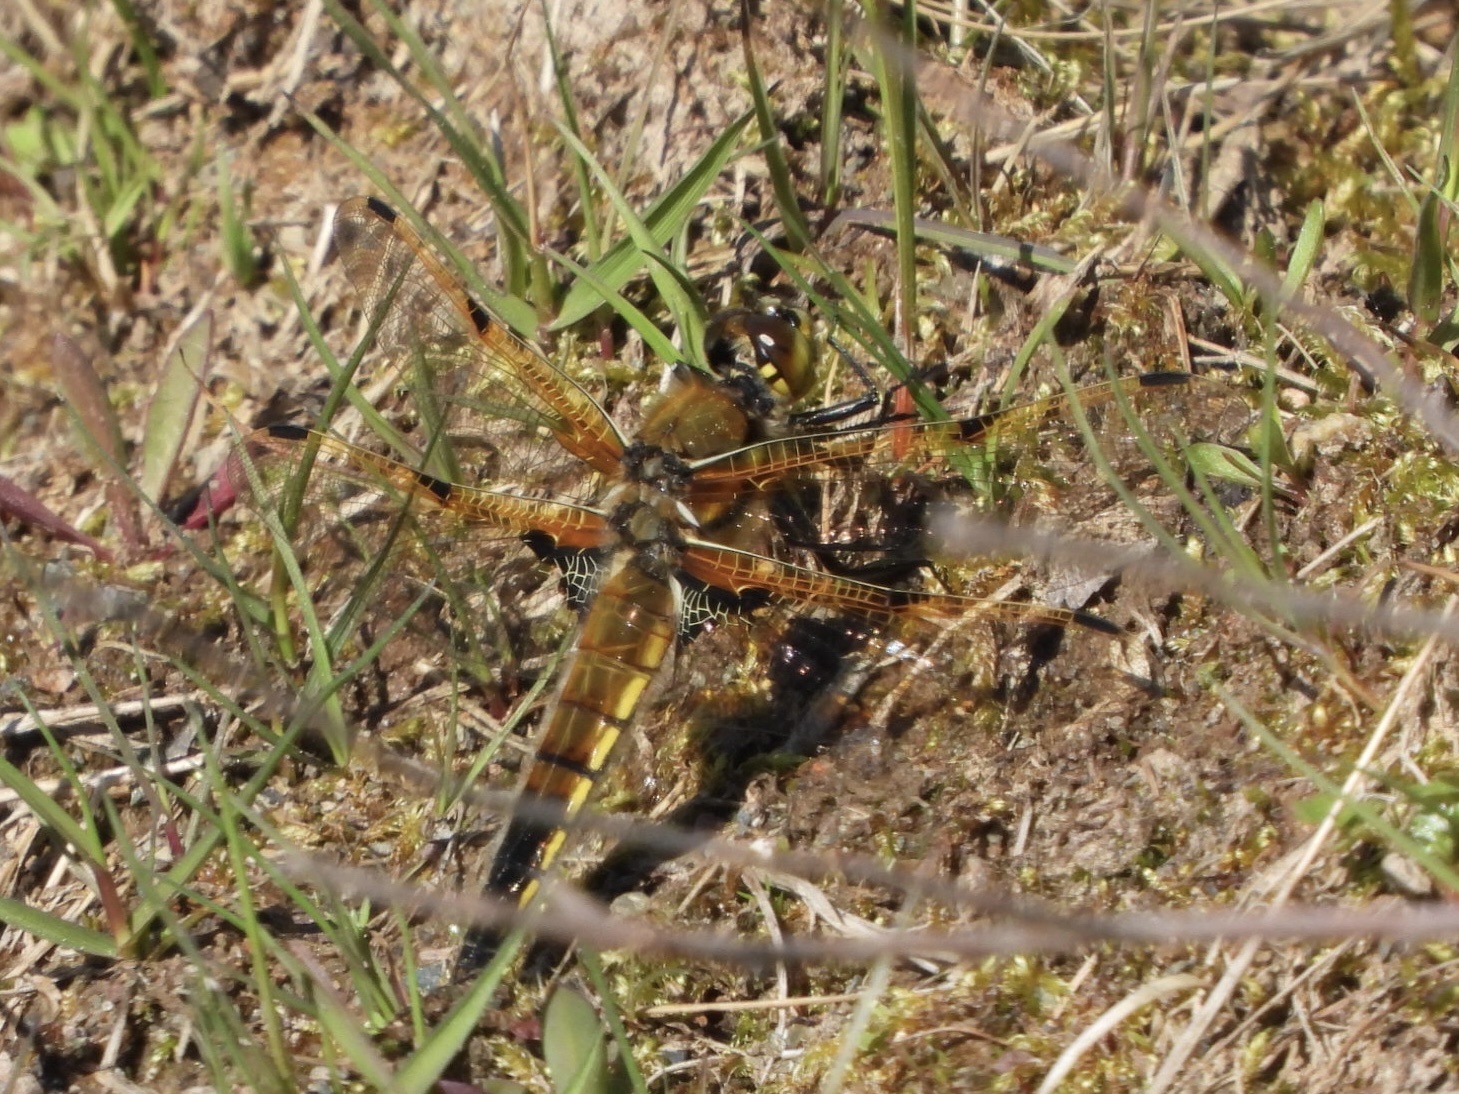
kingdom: Animalia
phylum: Arthropoda
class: Insecta
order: Odonata
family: Libellulidae
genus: Libellula
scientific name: Libellula quadrimaculata
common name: Four-spotted chaser
